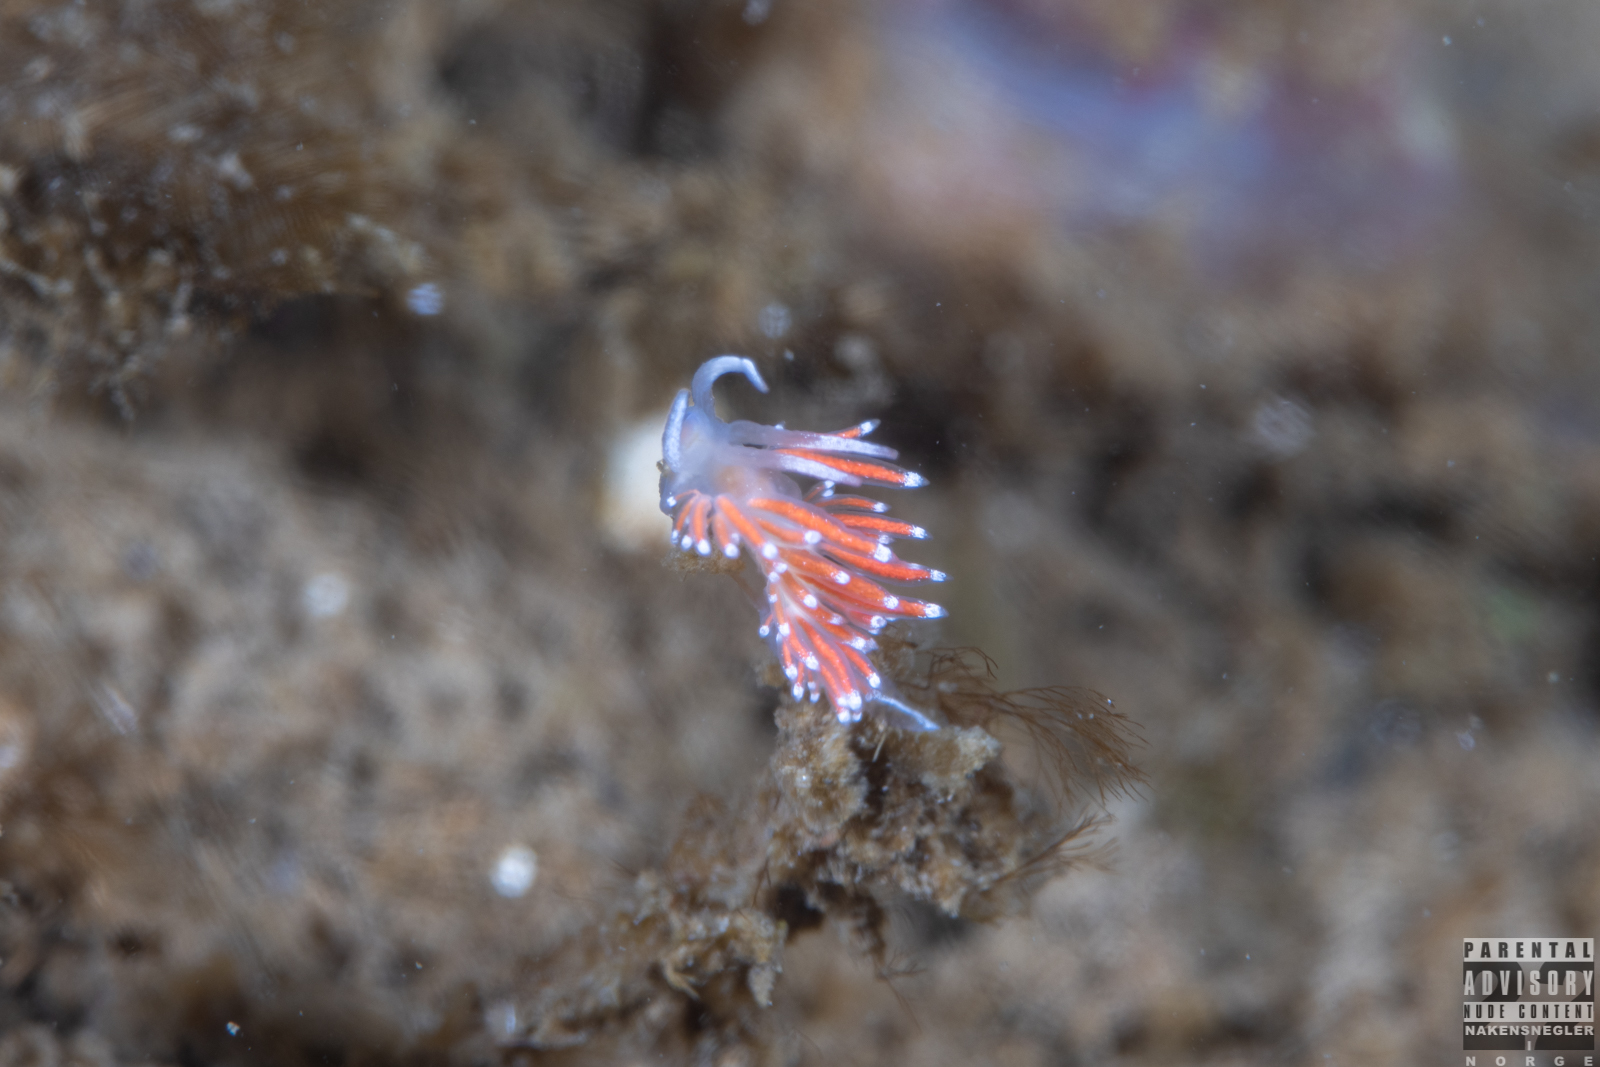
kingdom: Animalia
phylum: Mollusca
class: Gastropoda
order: Nudibranchia
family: Coryphellidae
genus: Coryphella
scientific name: Coryphella gracilis
